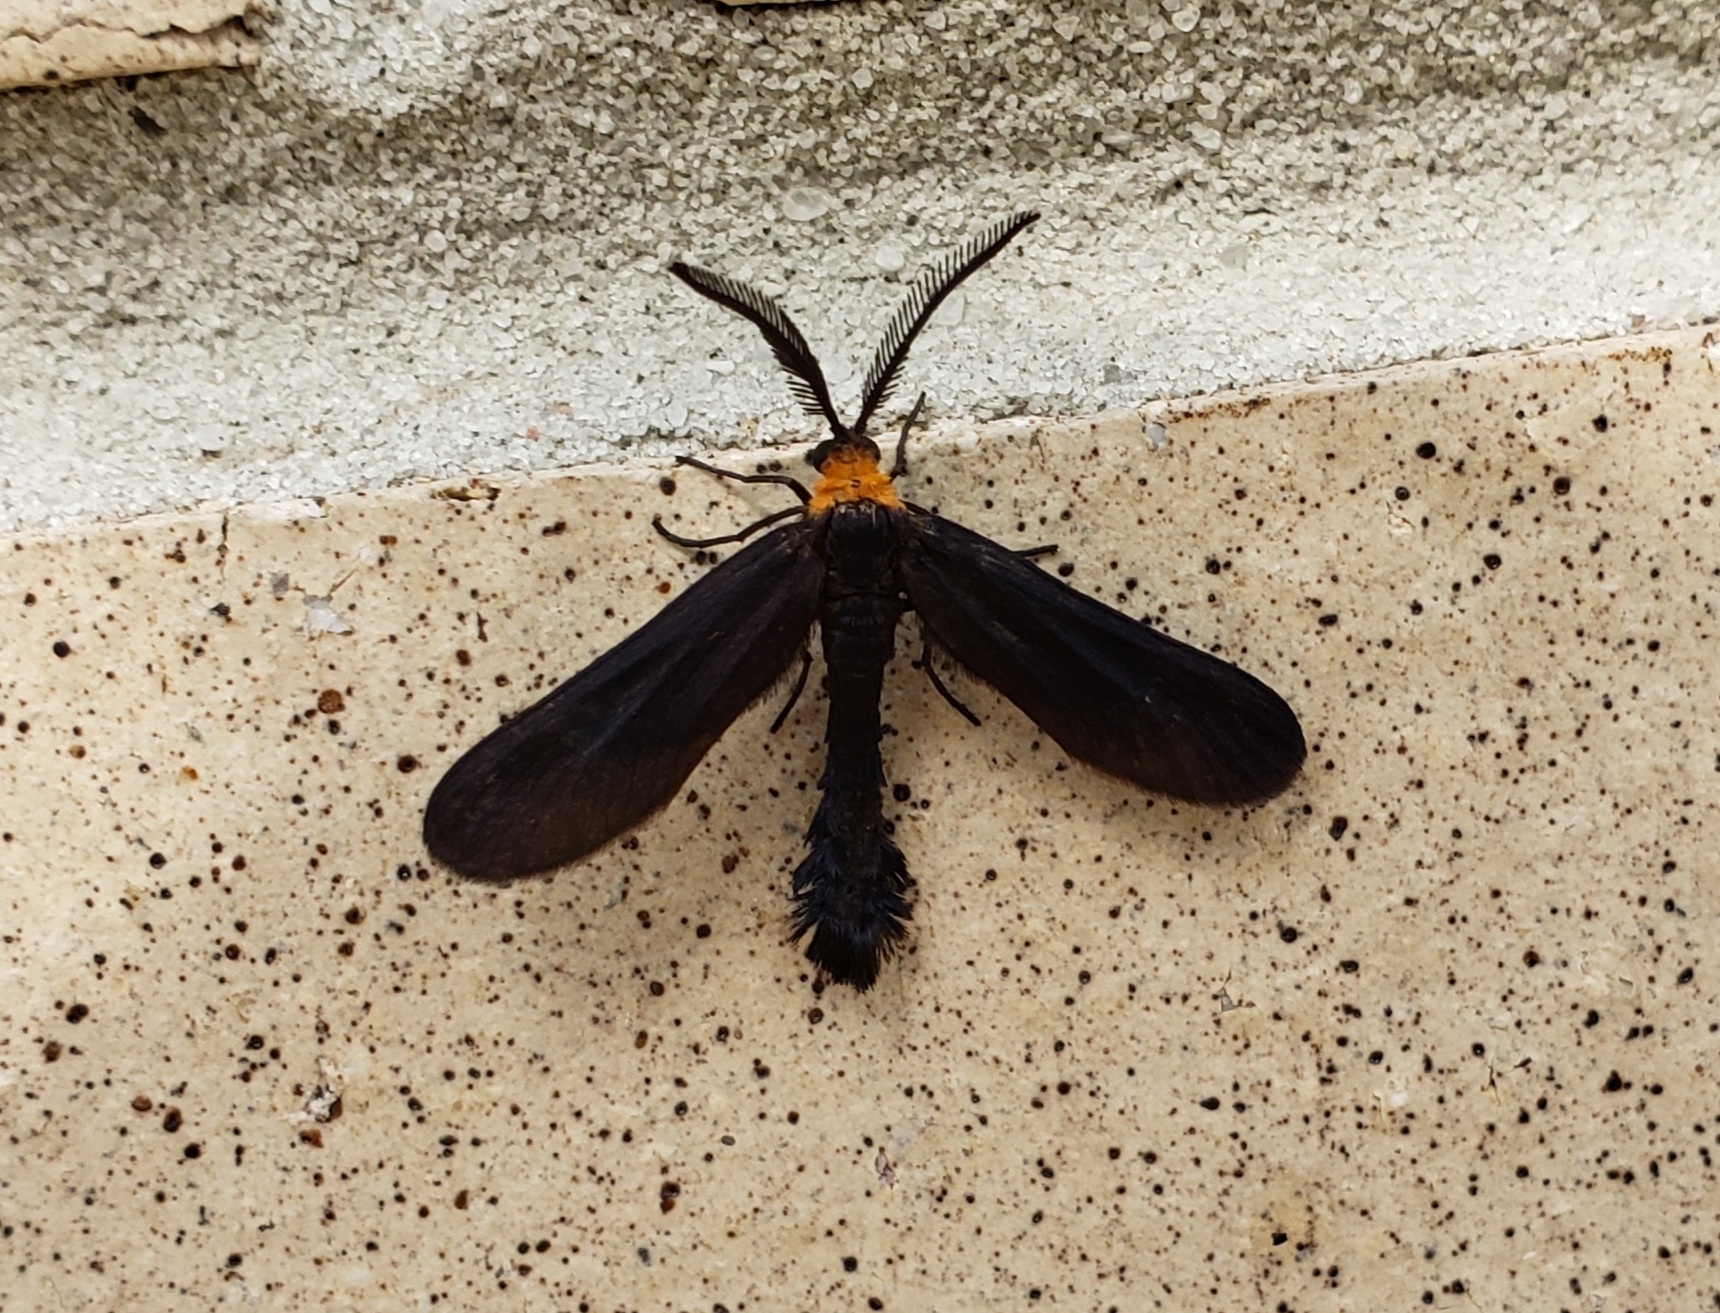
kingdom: Animalia
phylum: Arthropoda
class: Insecta
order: Lepidoptera
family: Zygaenidae
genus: Harrisina
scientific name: Harrisina americana
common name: Grapeleaf skeletonizer moth
